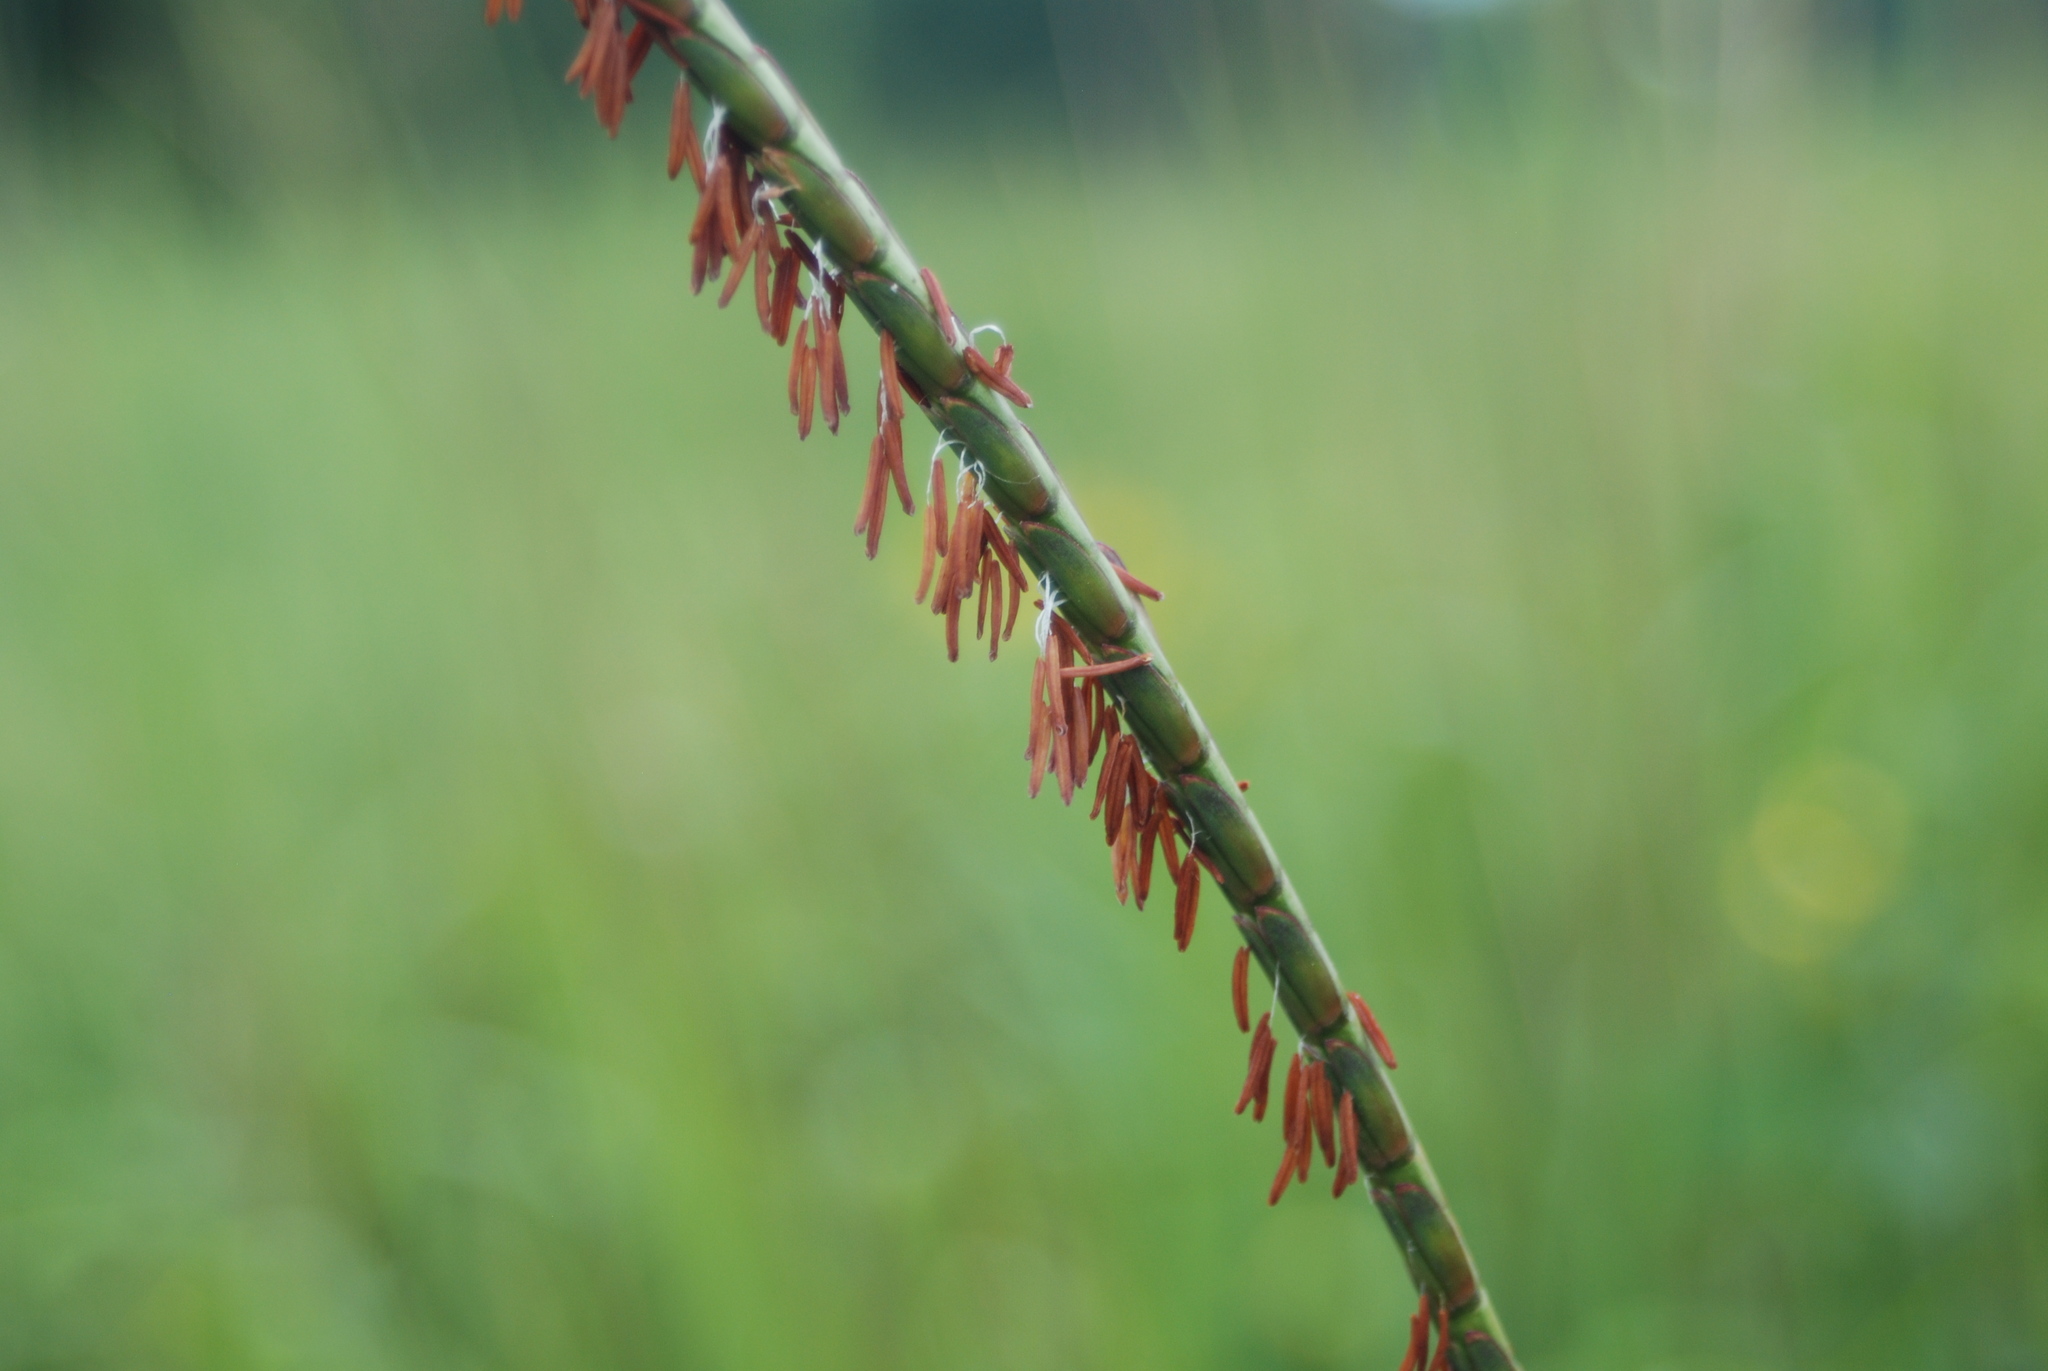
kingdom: Plantae
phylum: Tracheophyta
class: Liliopsida
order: Poales
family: Poaceae
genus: Tripsacum
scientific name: Tripsacum dactyloides
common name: Buffalo-grass
